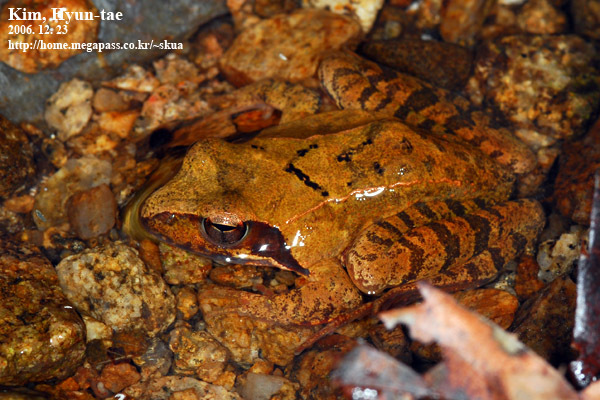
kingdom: Animalia
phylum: Chordata
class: Amphibia
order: Anura
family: Ranidae
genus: Rana
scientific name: Rana uenoi
